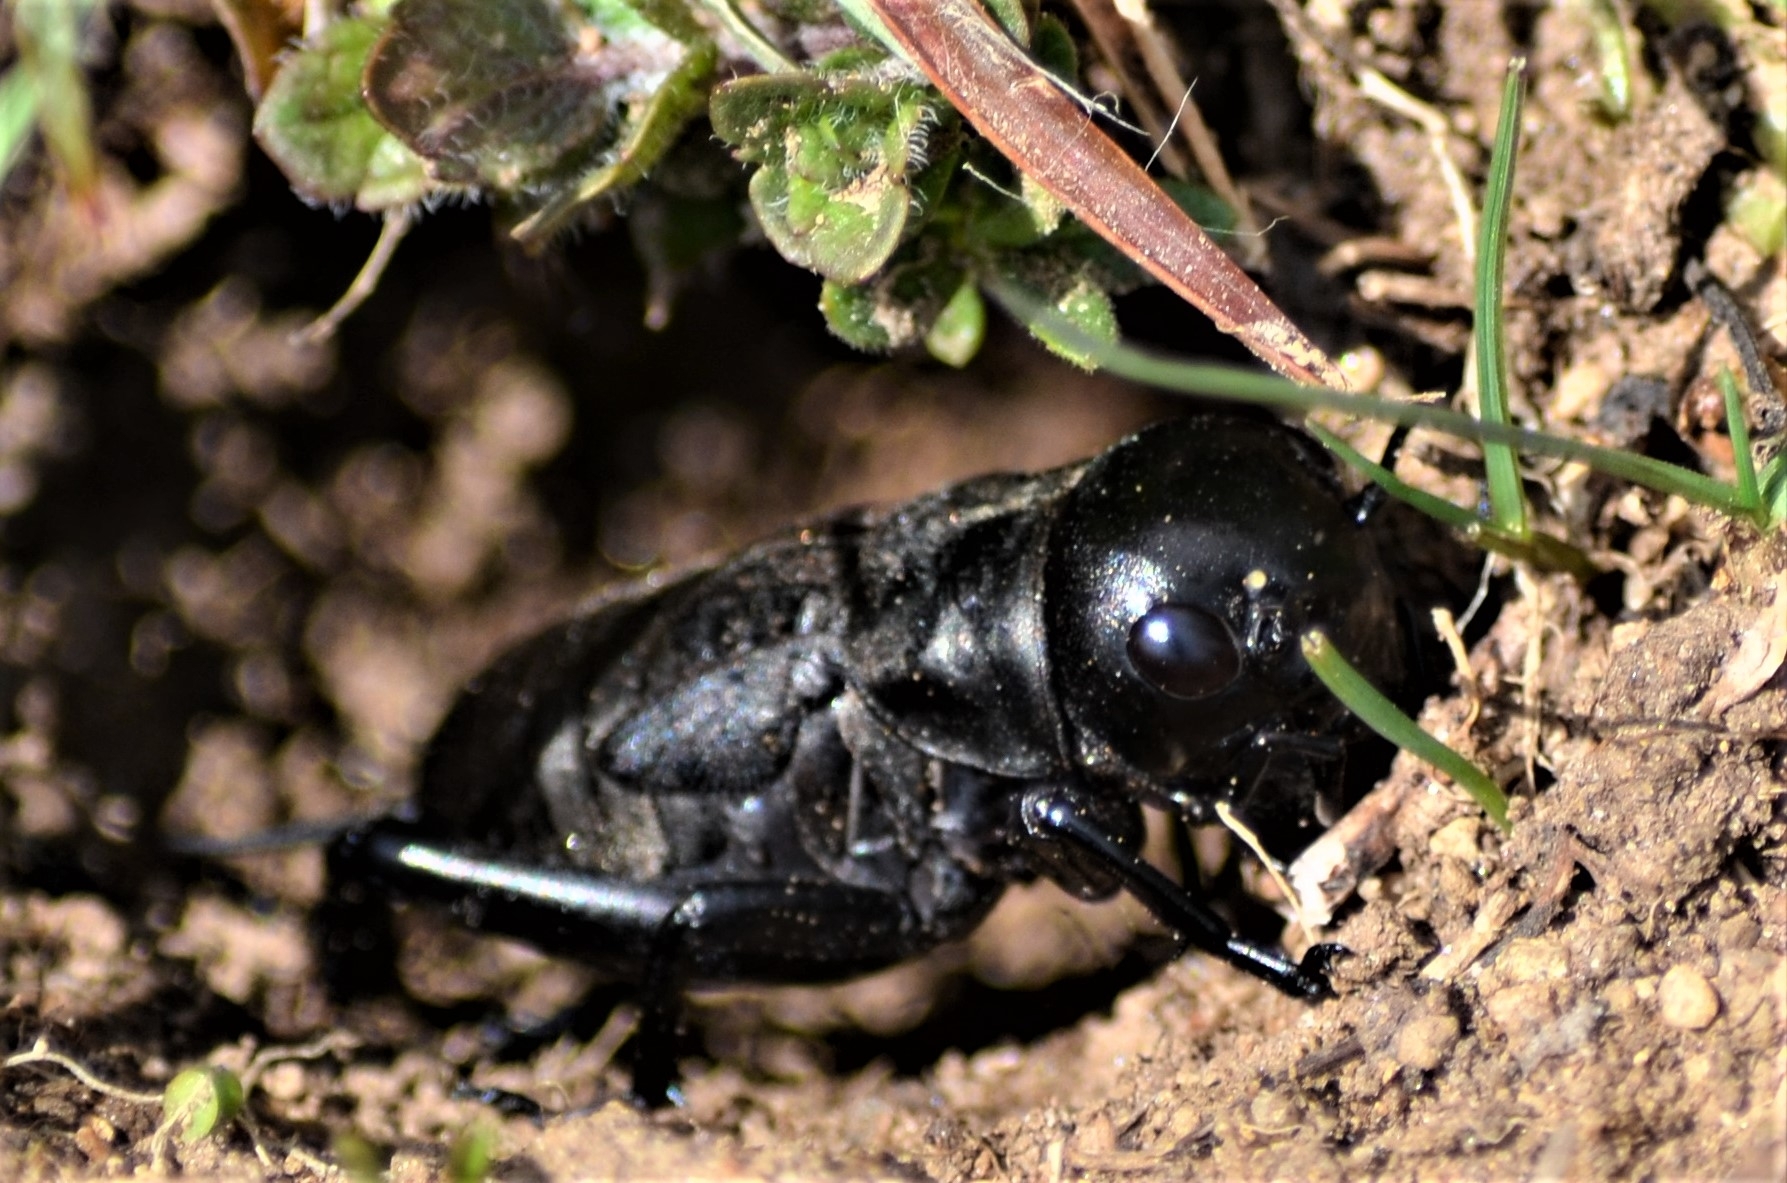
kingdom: Animalia
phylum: Arthropoda
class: Insecta
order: Orthoptera
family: Gryllidae
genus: Gryllus
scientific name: Gryllus campestris
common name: Field cricket
